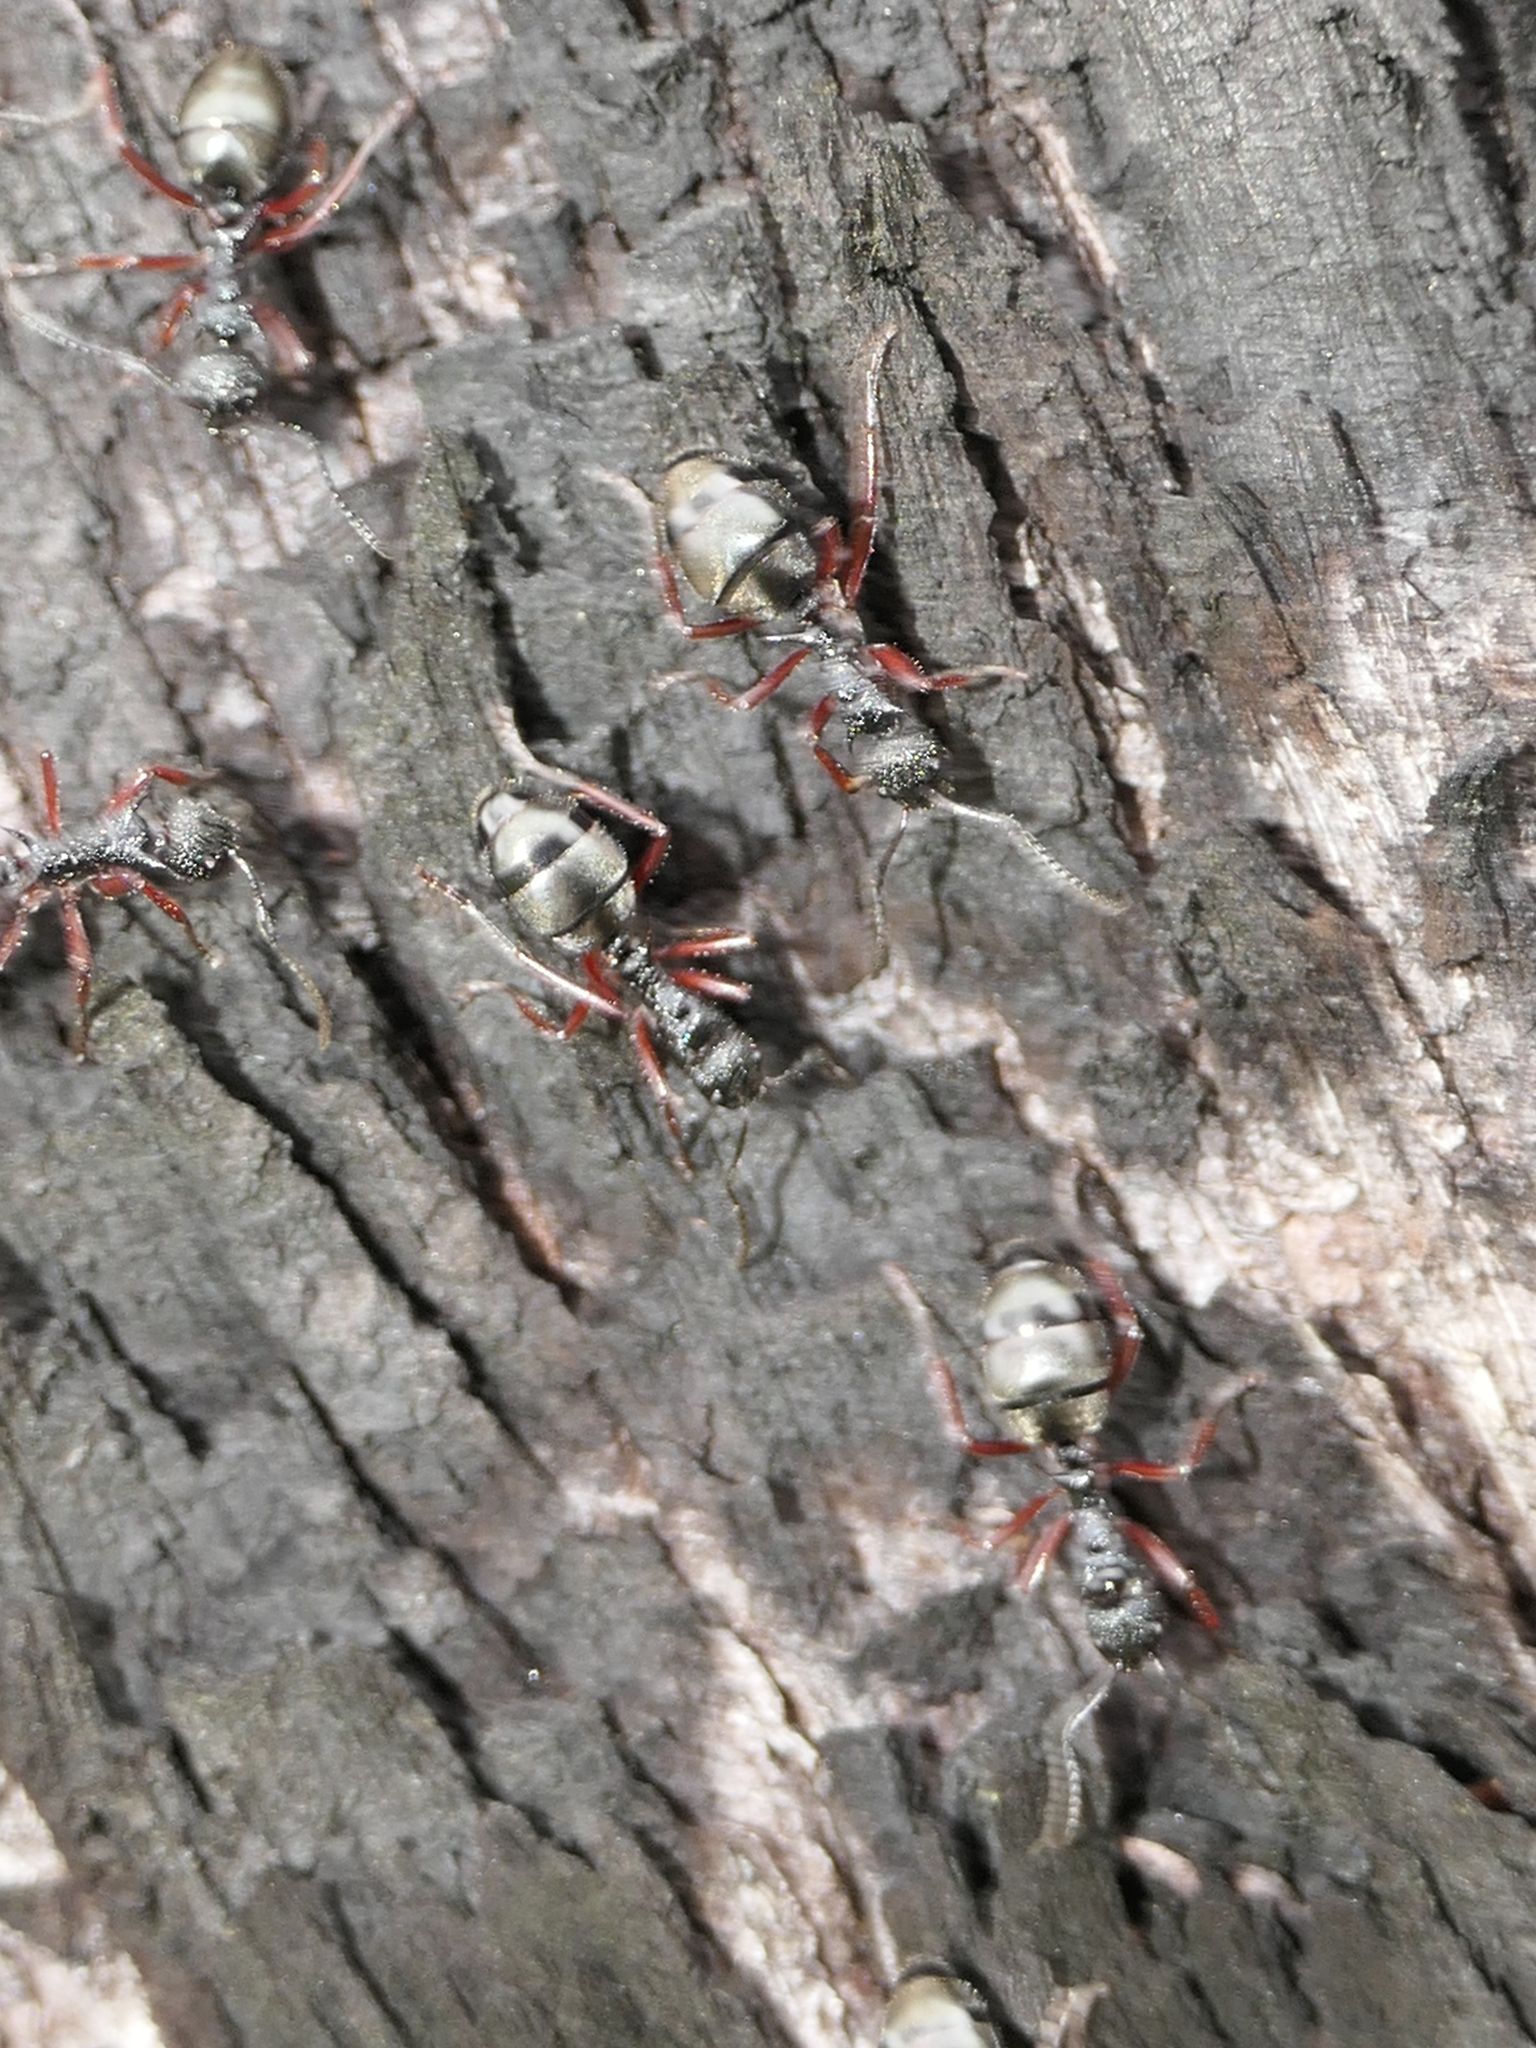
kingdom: Animalia
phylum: Arthropoda
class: Insecta
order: Hymenoptera
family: Formicidae
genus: Dolichoderus
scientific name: Dolichoderus doriae
